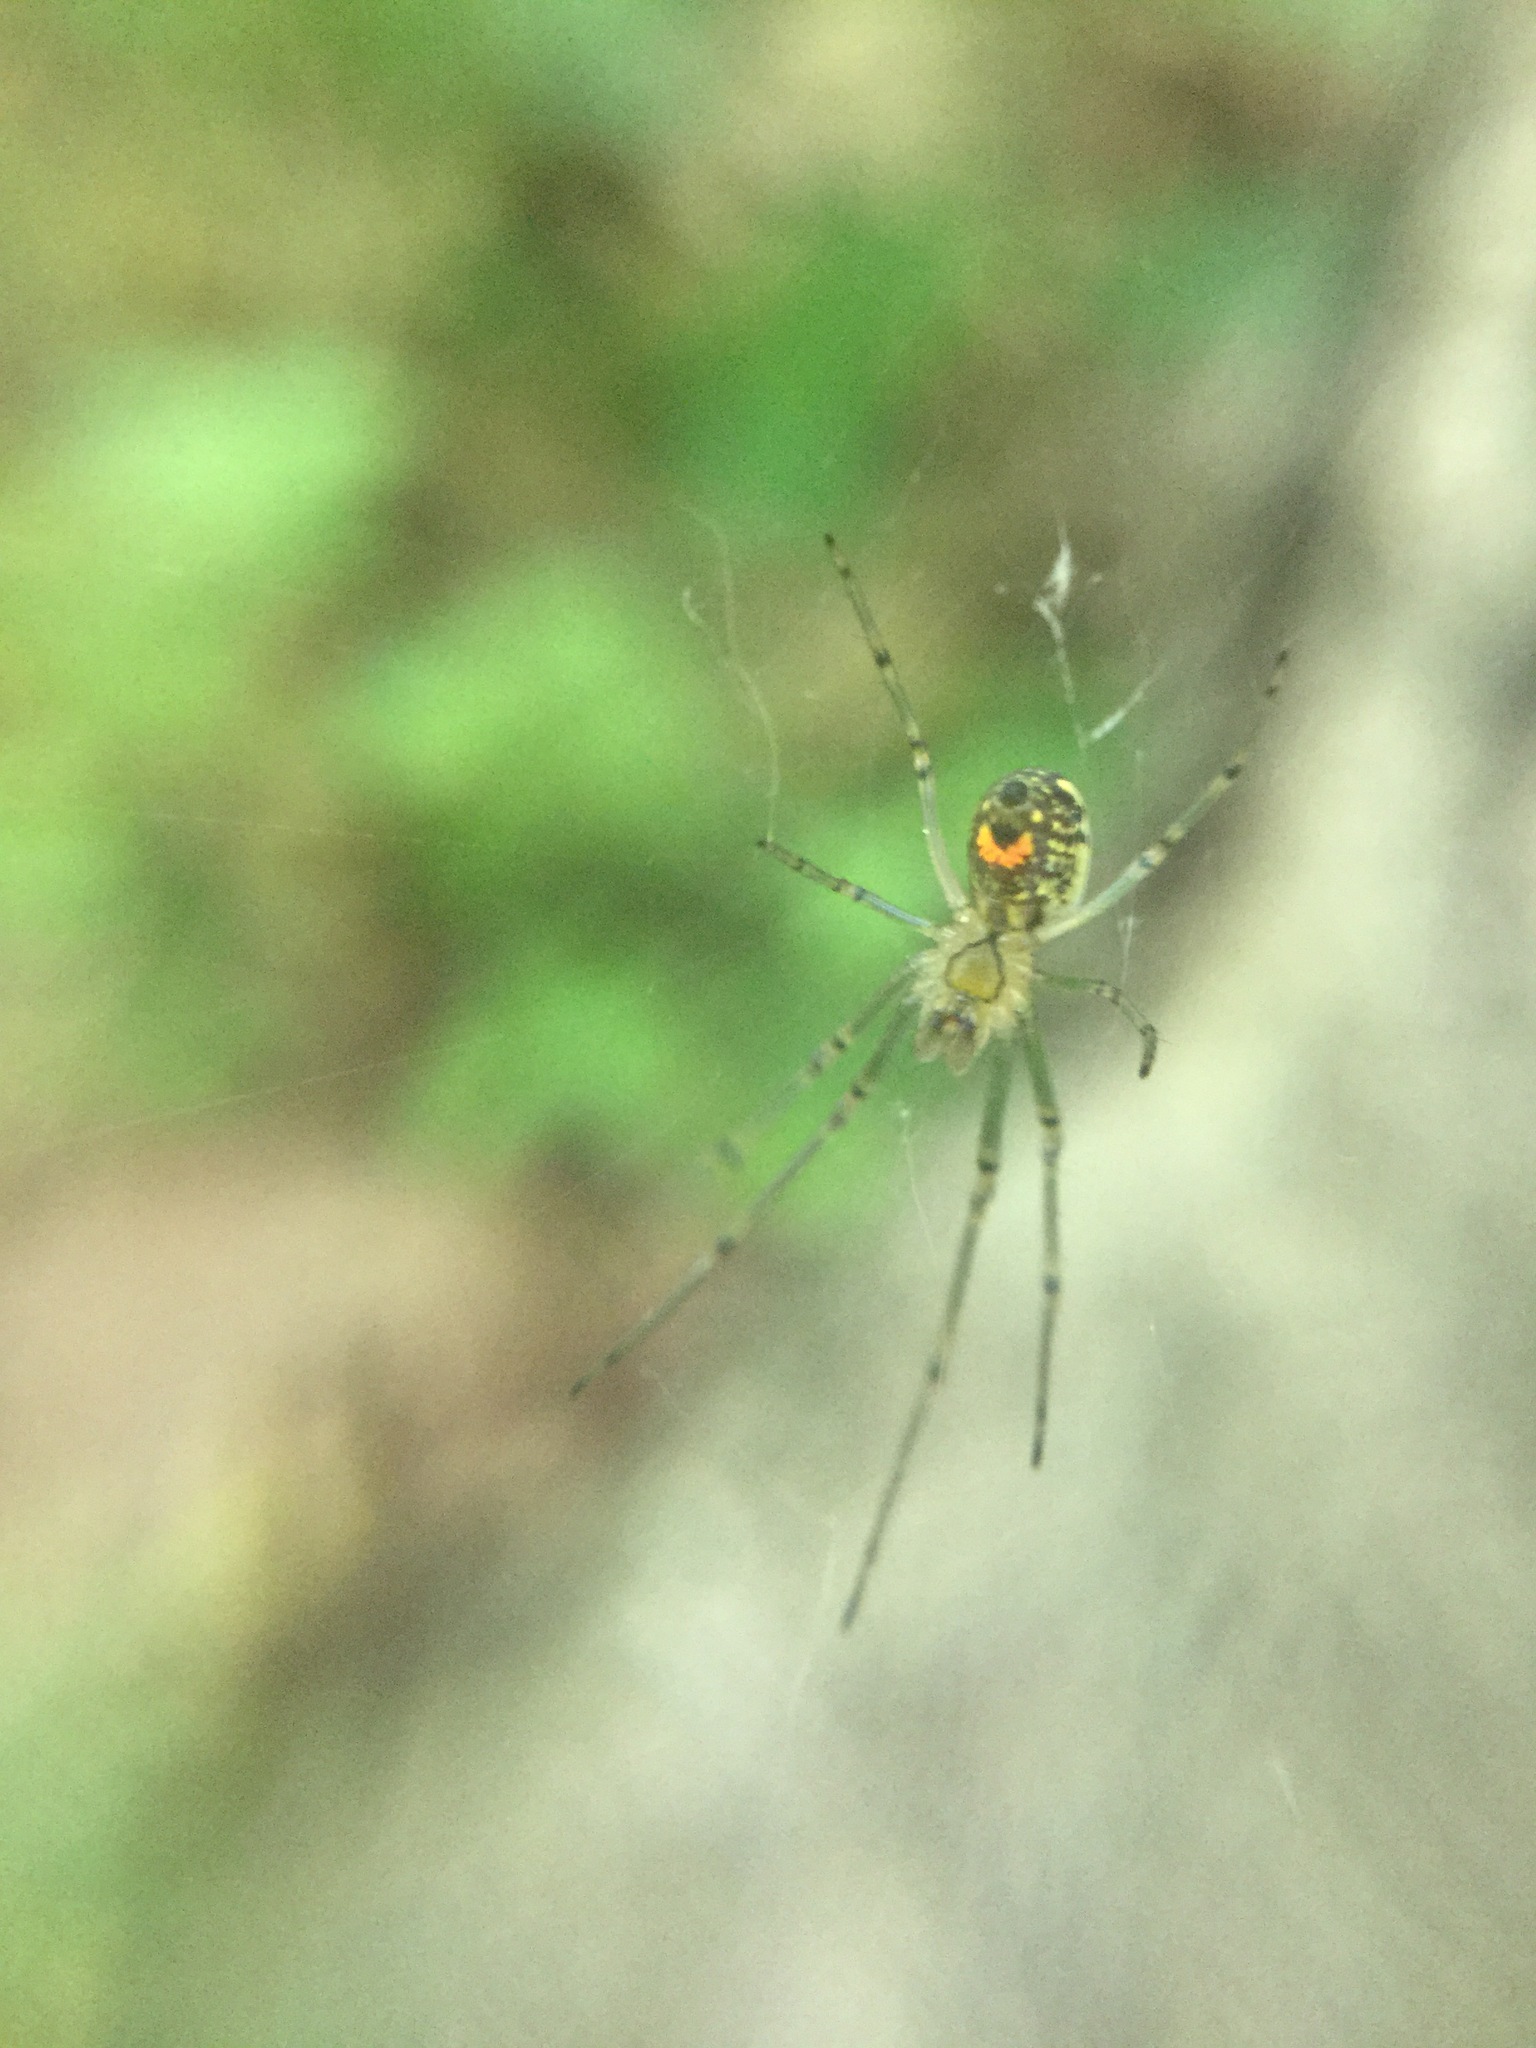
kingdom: Animalia
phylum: Arthropoda
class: Arachnida
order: Araneae
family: Tetragnathidae
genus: Leucauge
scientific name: Leucauge venusta
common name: Longjawed orb weavers
